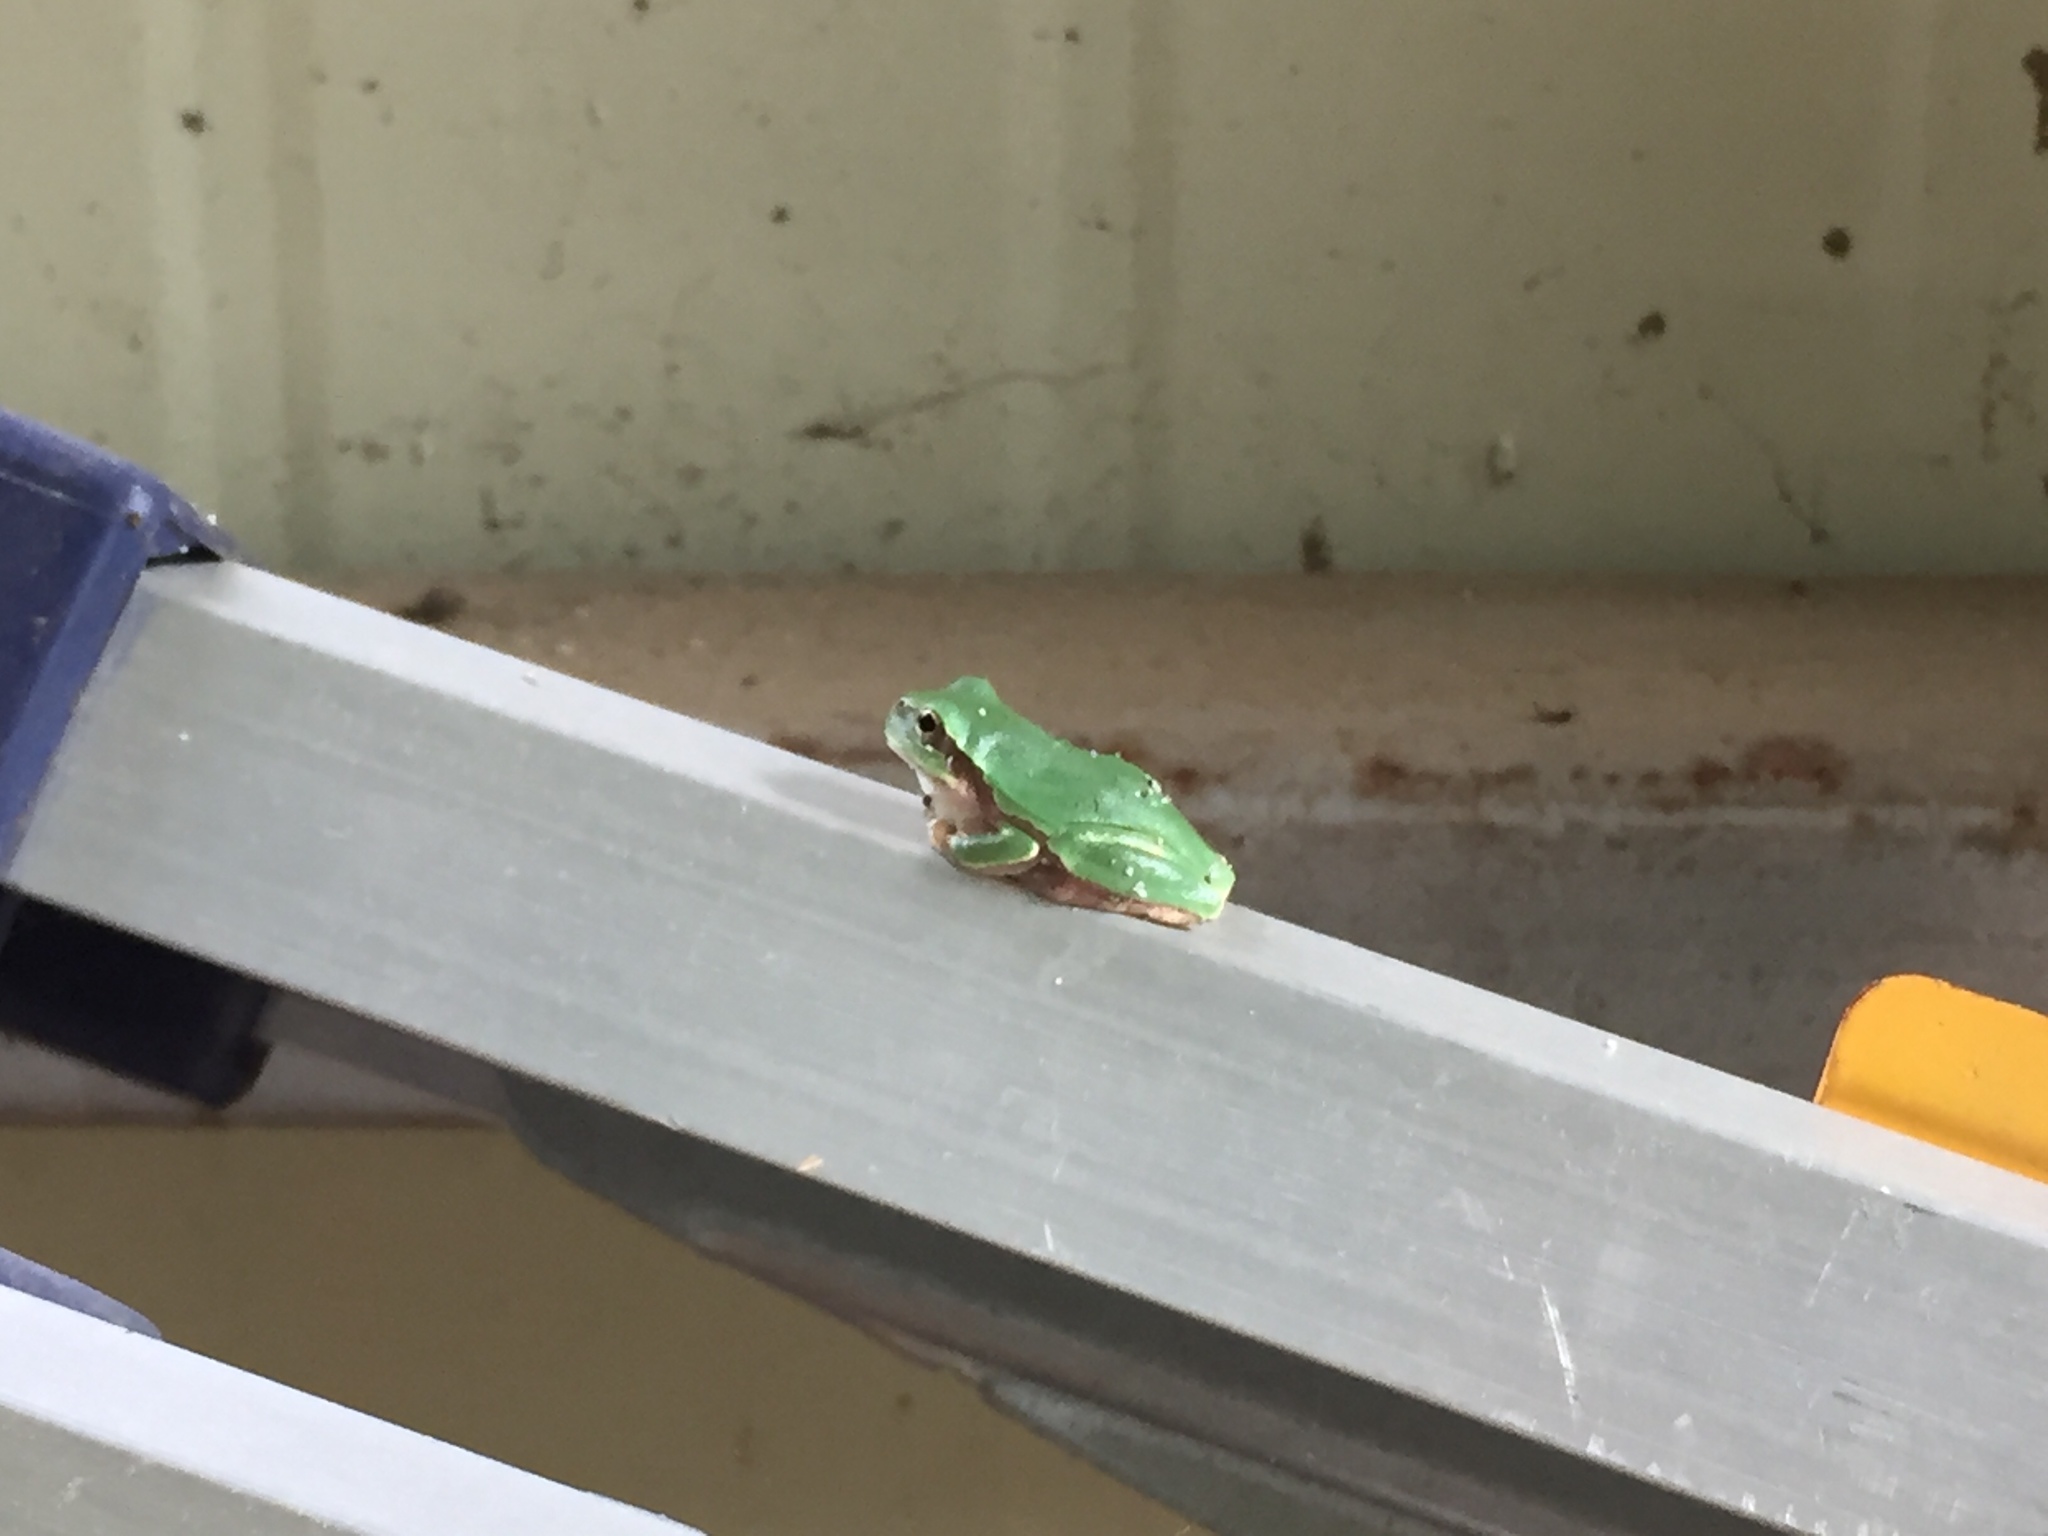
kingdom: Animalia
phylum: Chordata
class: Amphibia
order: Anura
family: Hylidae
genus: Dryophytes
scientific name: Dryophytes japonicus
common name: Japanese treefrog
